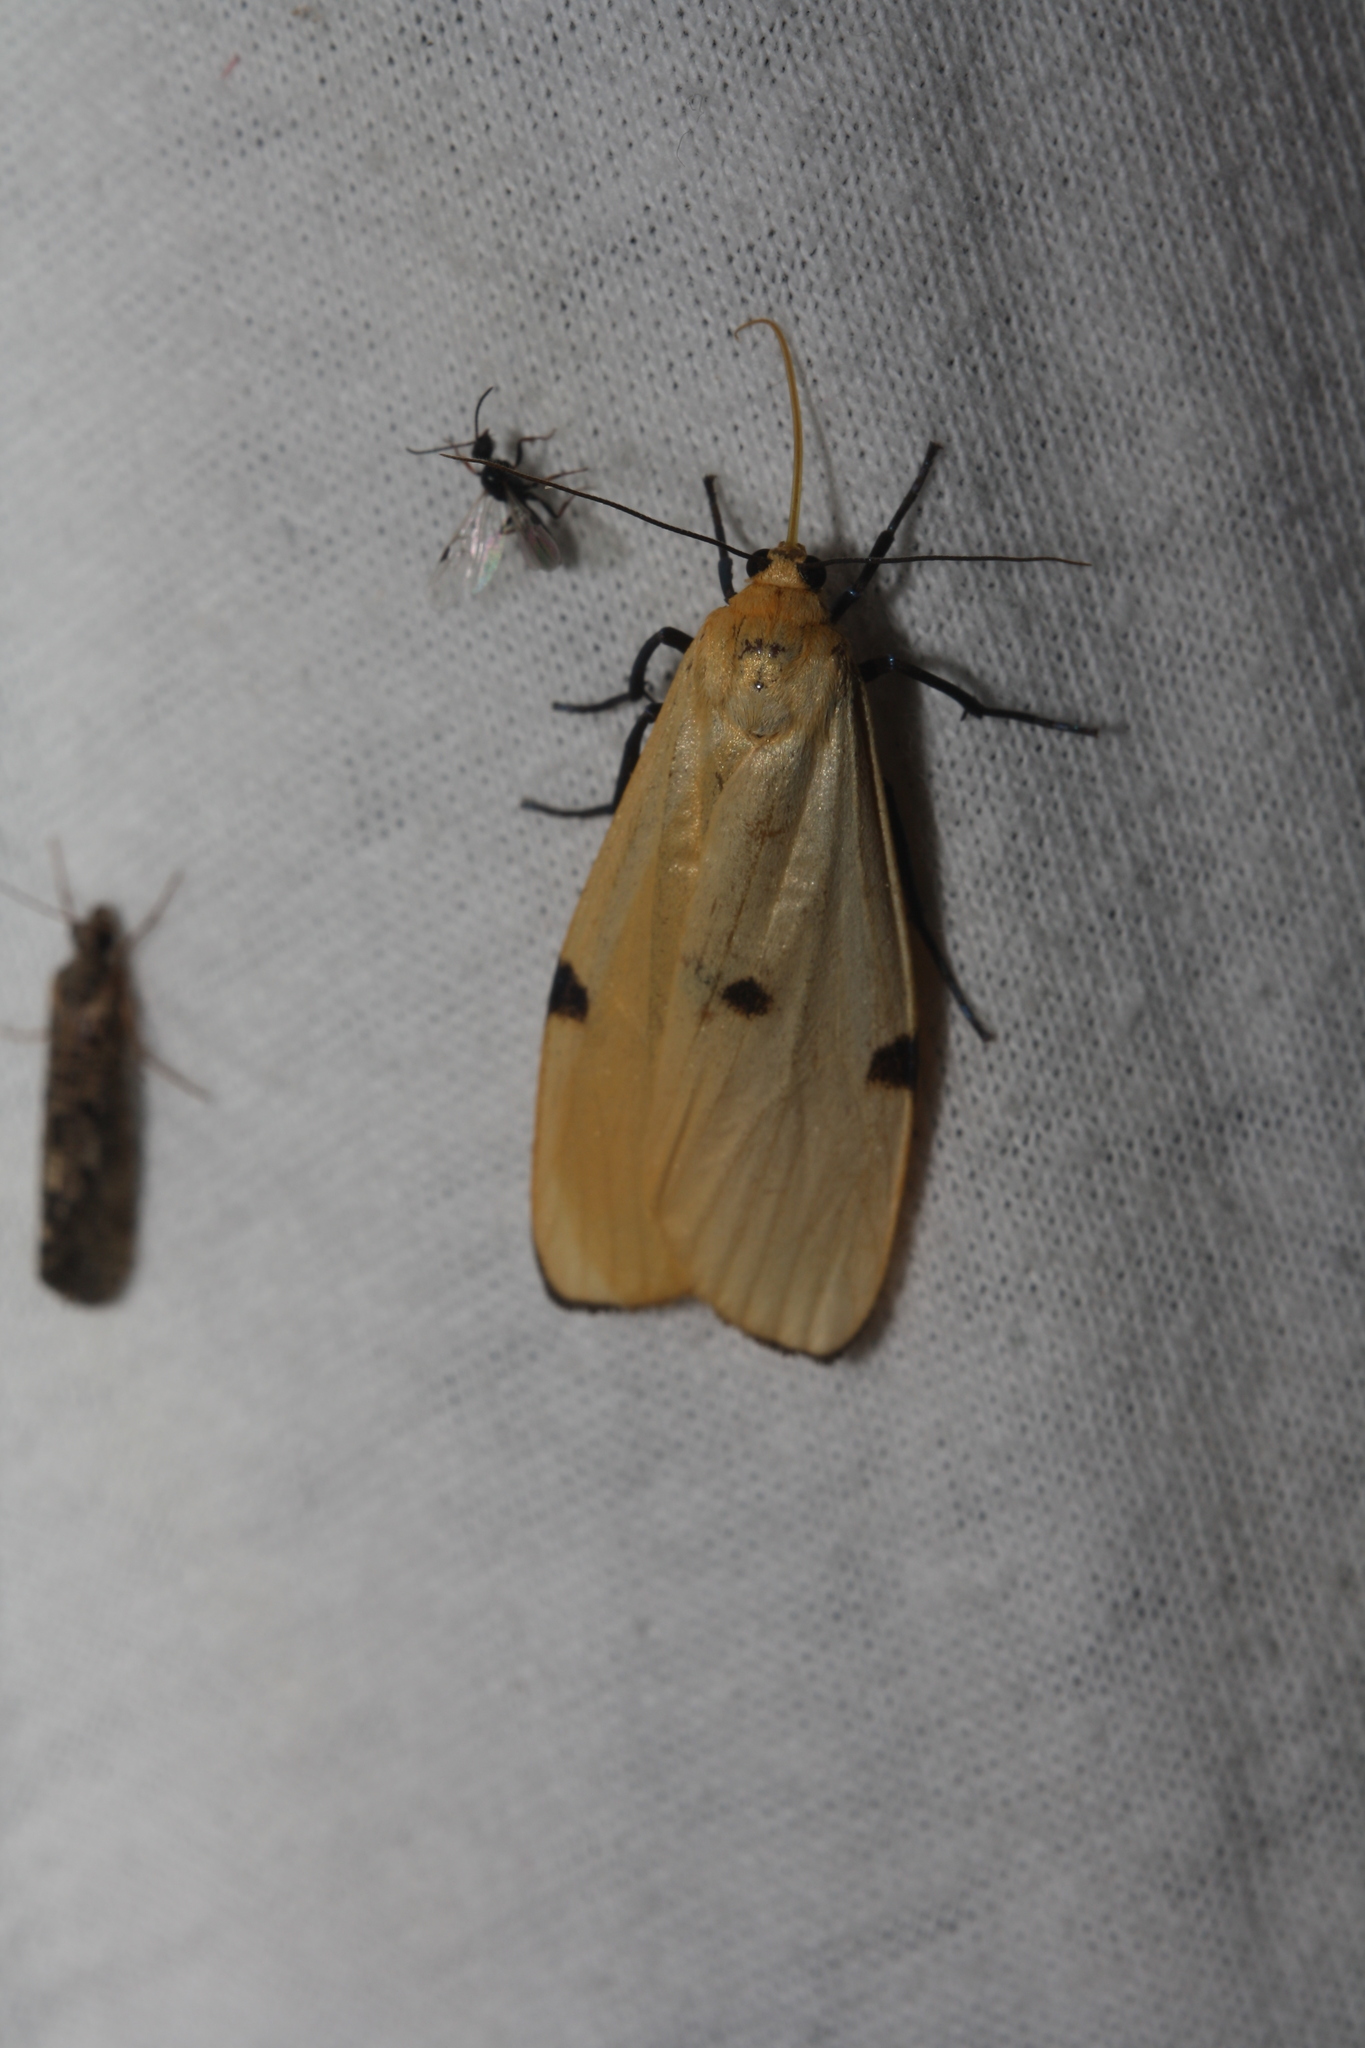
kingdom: Animalia
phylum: Arthropoda
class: Insecta
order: Lepidoptera
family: Erebidae
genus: Lithosia
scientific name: Lithosia quadra
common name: Four-spotted footman
